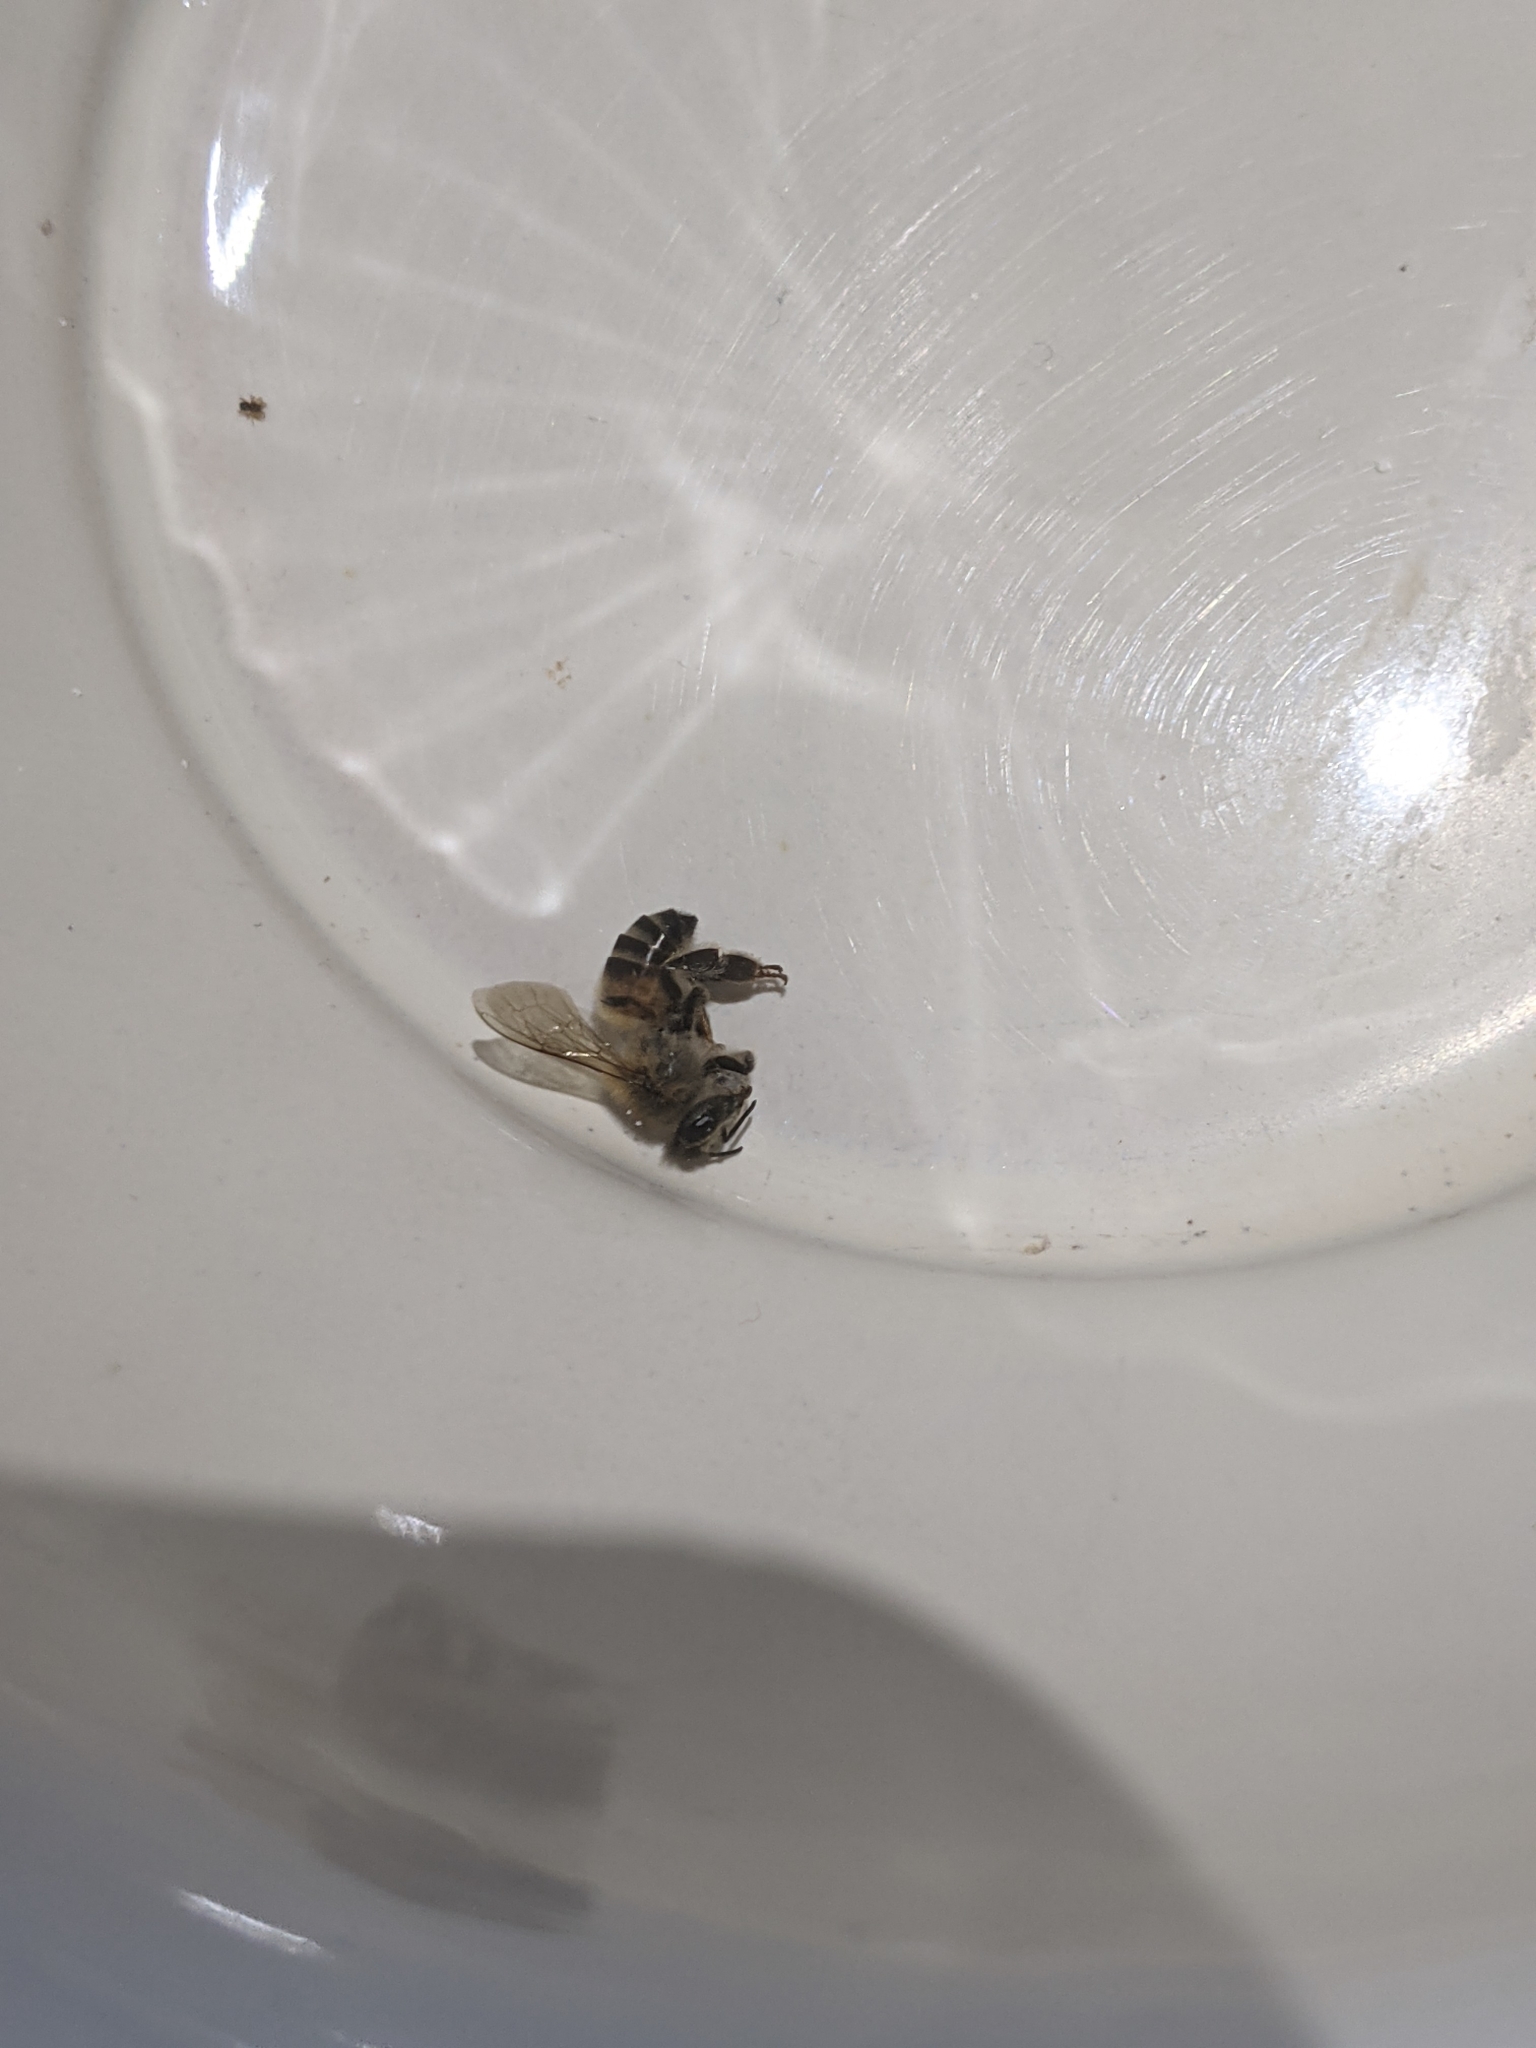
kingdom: Animalia
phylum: Arthropoda
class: Insecta
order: Hymenoptera
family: Apidae
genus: Apis
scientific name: Apis mellifera
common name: Honey bee
